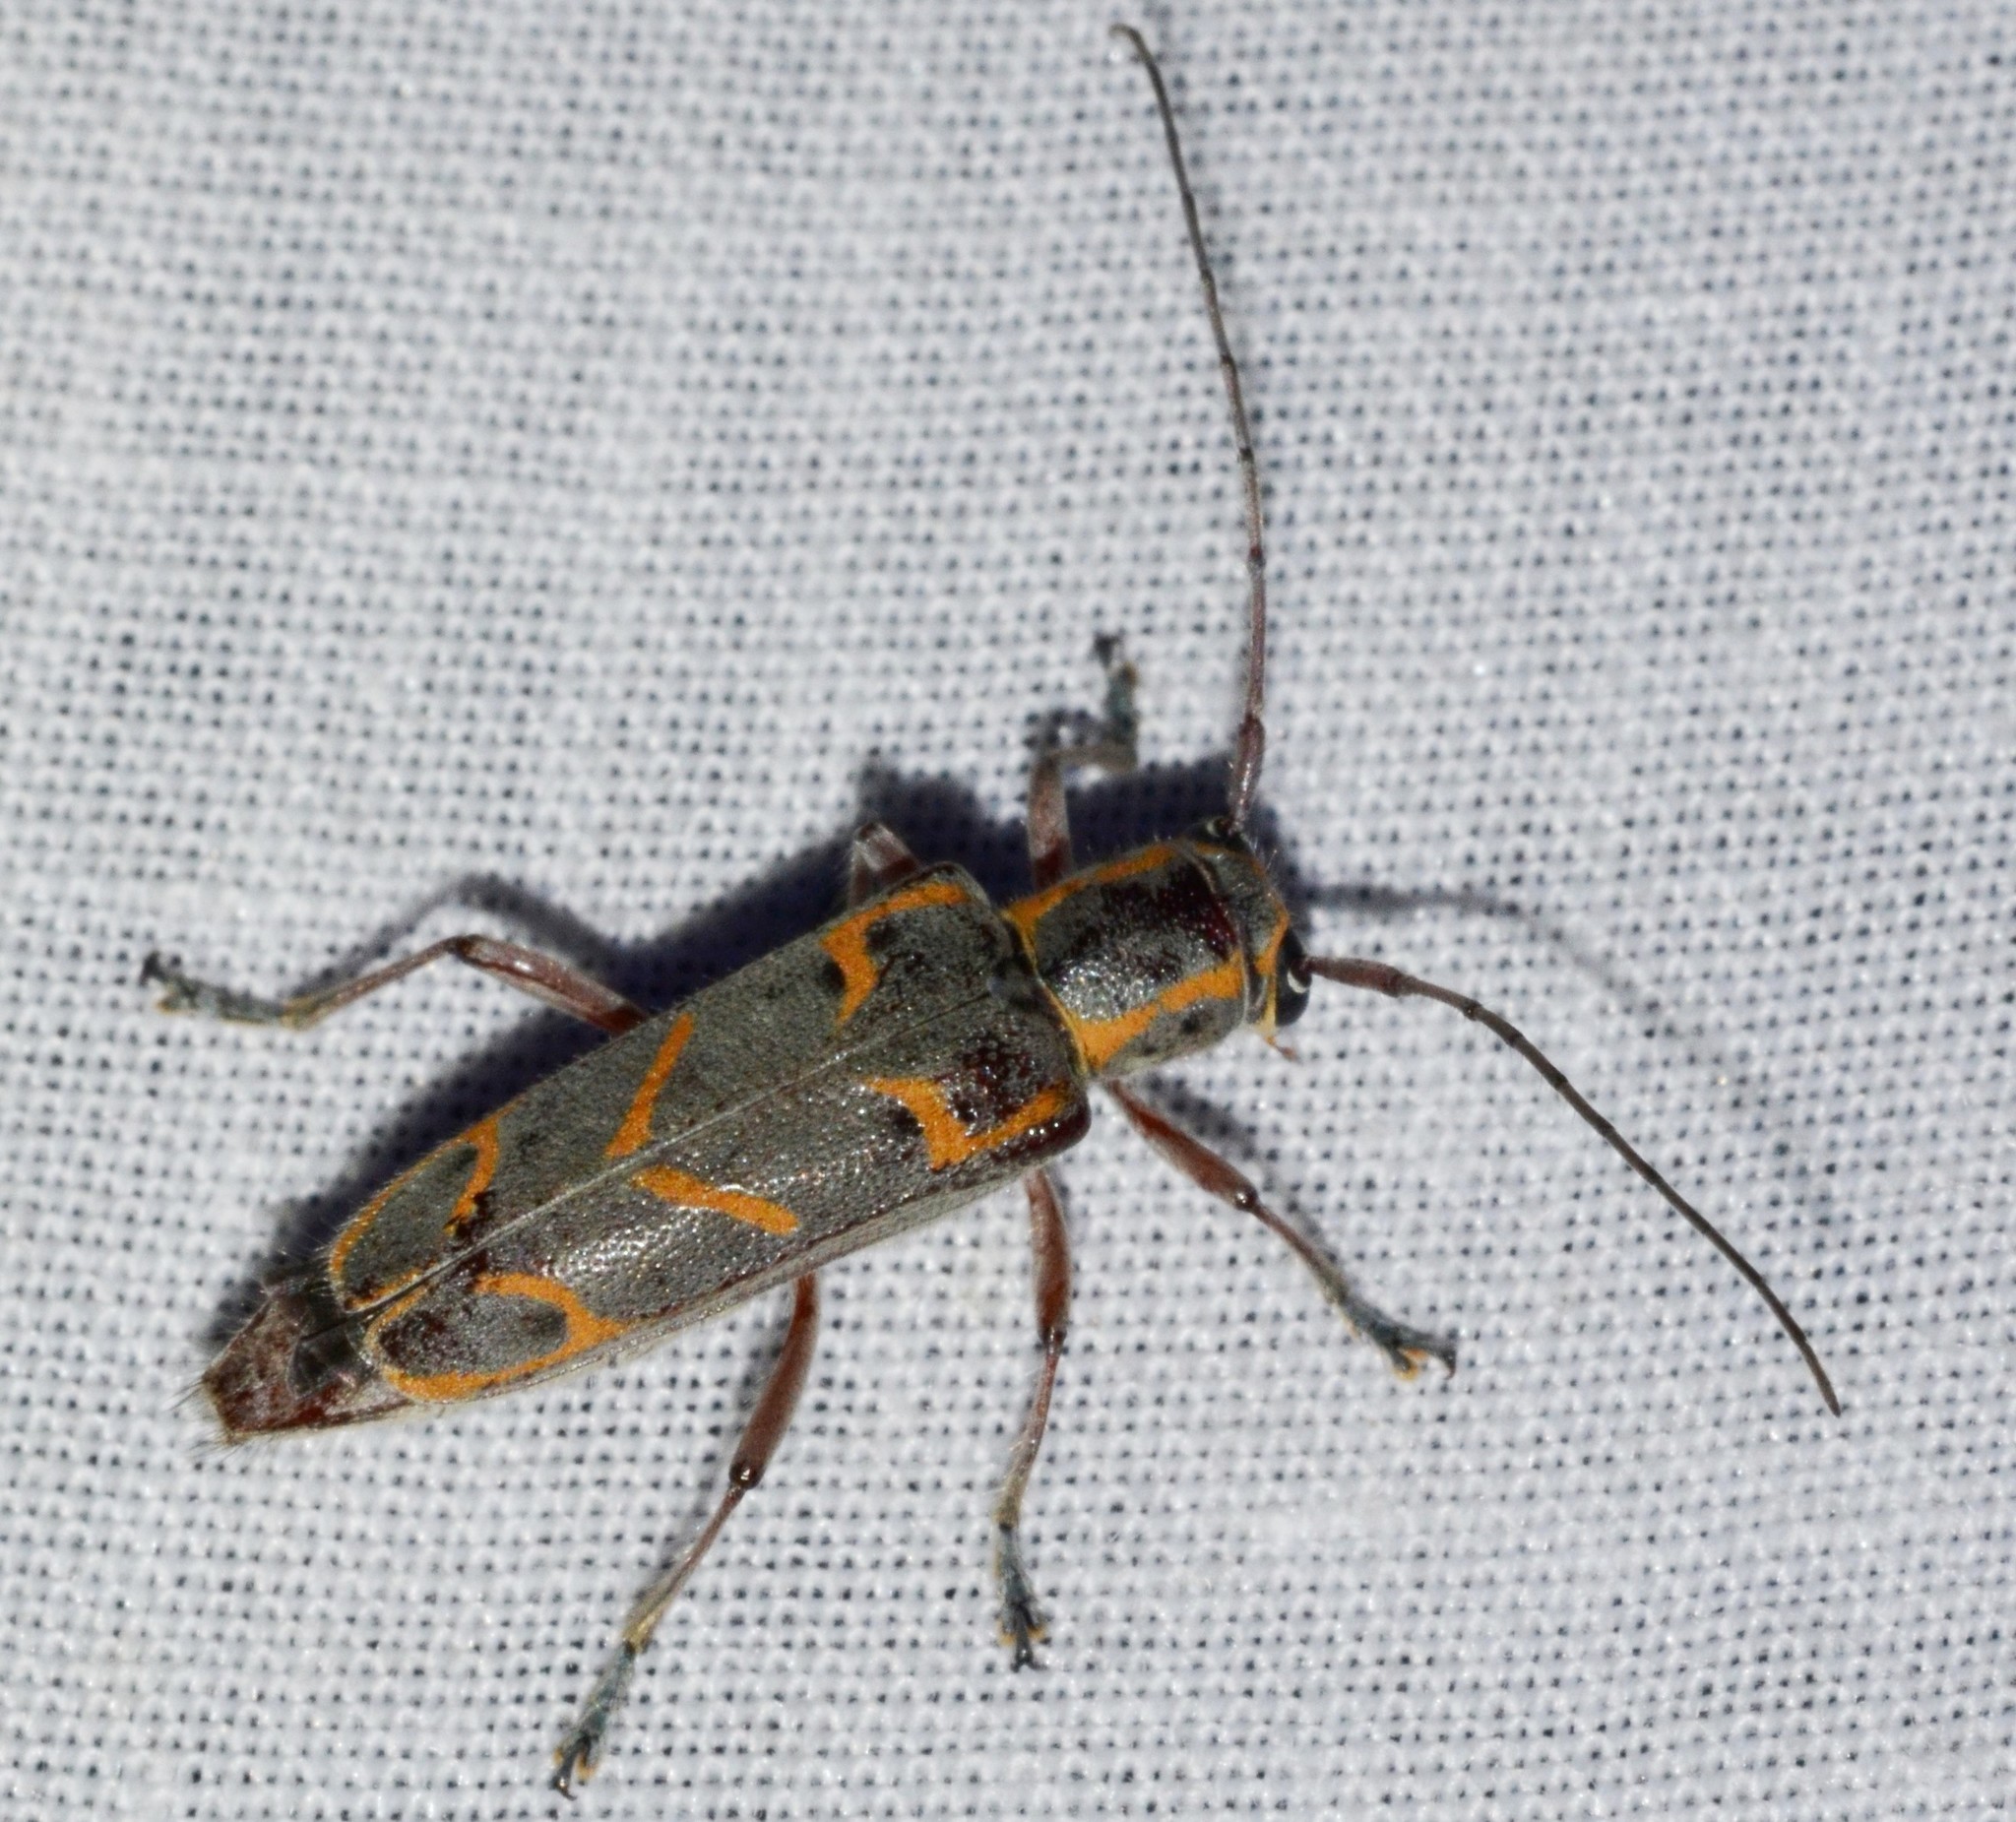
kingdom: Animalia
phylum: Arthropoda
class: Insecta
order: Coleoptera
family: Cerambycidae
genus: Saperda
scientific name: Saperda tridentata
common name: Elm borer
